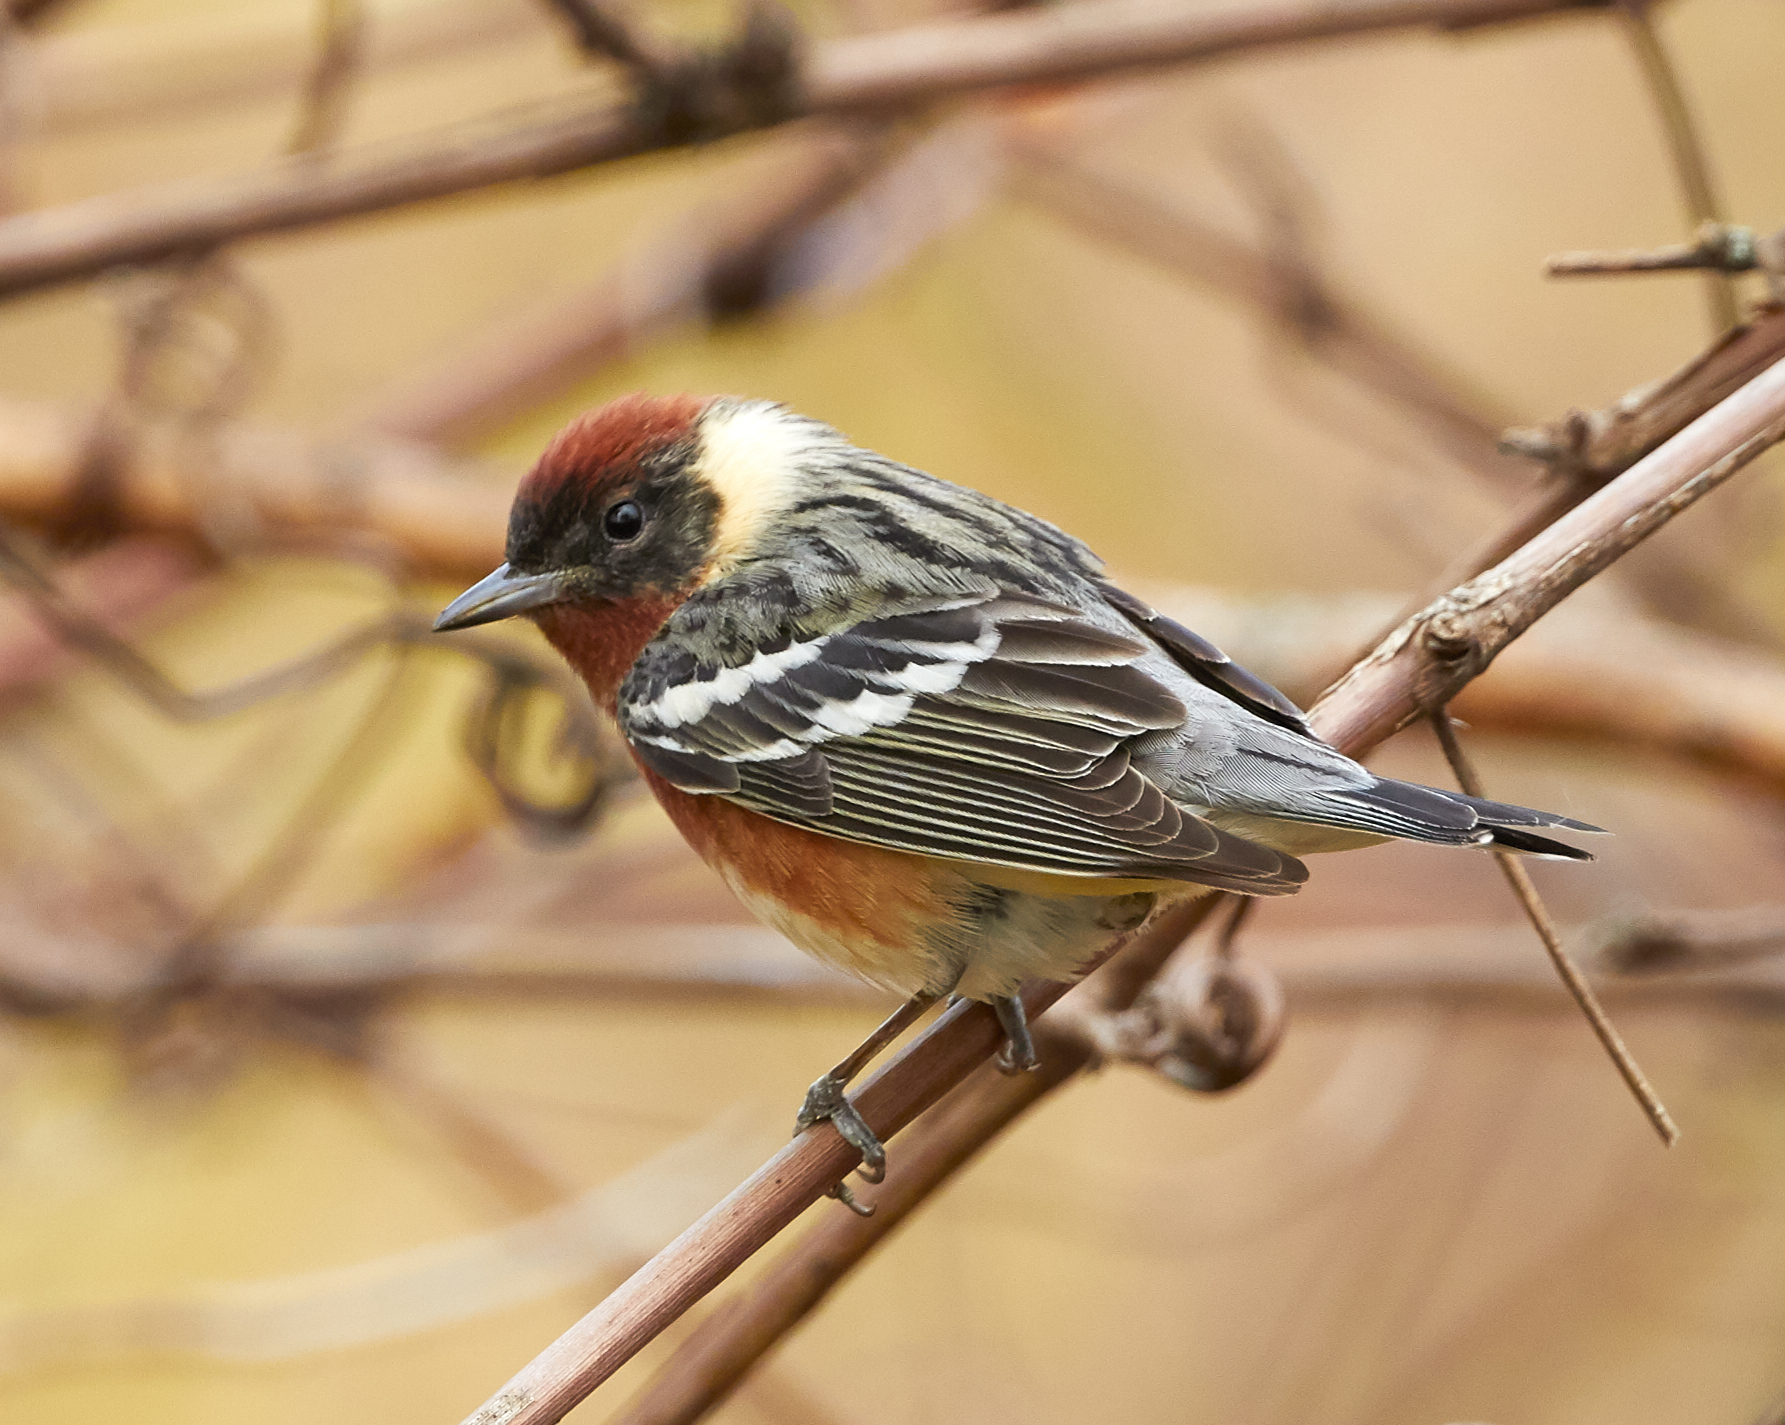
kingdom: Animalia
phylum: Chordata
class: Aves
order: Passeriformes
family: Parulidae
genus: Setophaga
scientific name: Setophaga castanea
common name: Bay-breasted warbler
